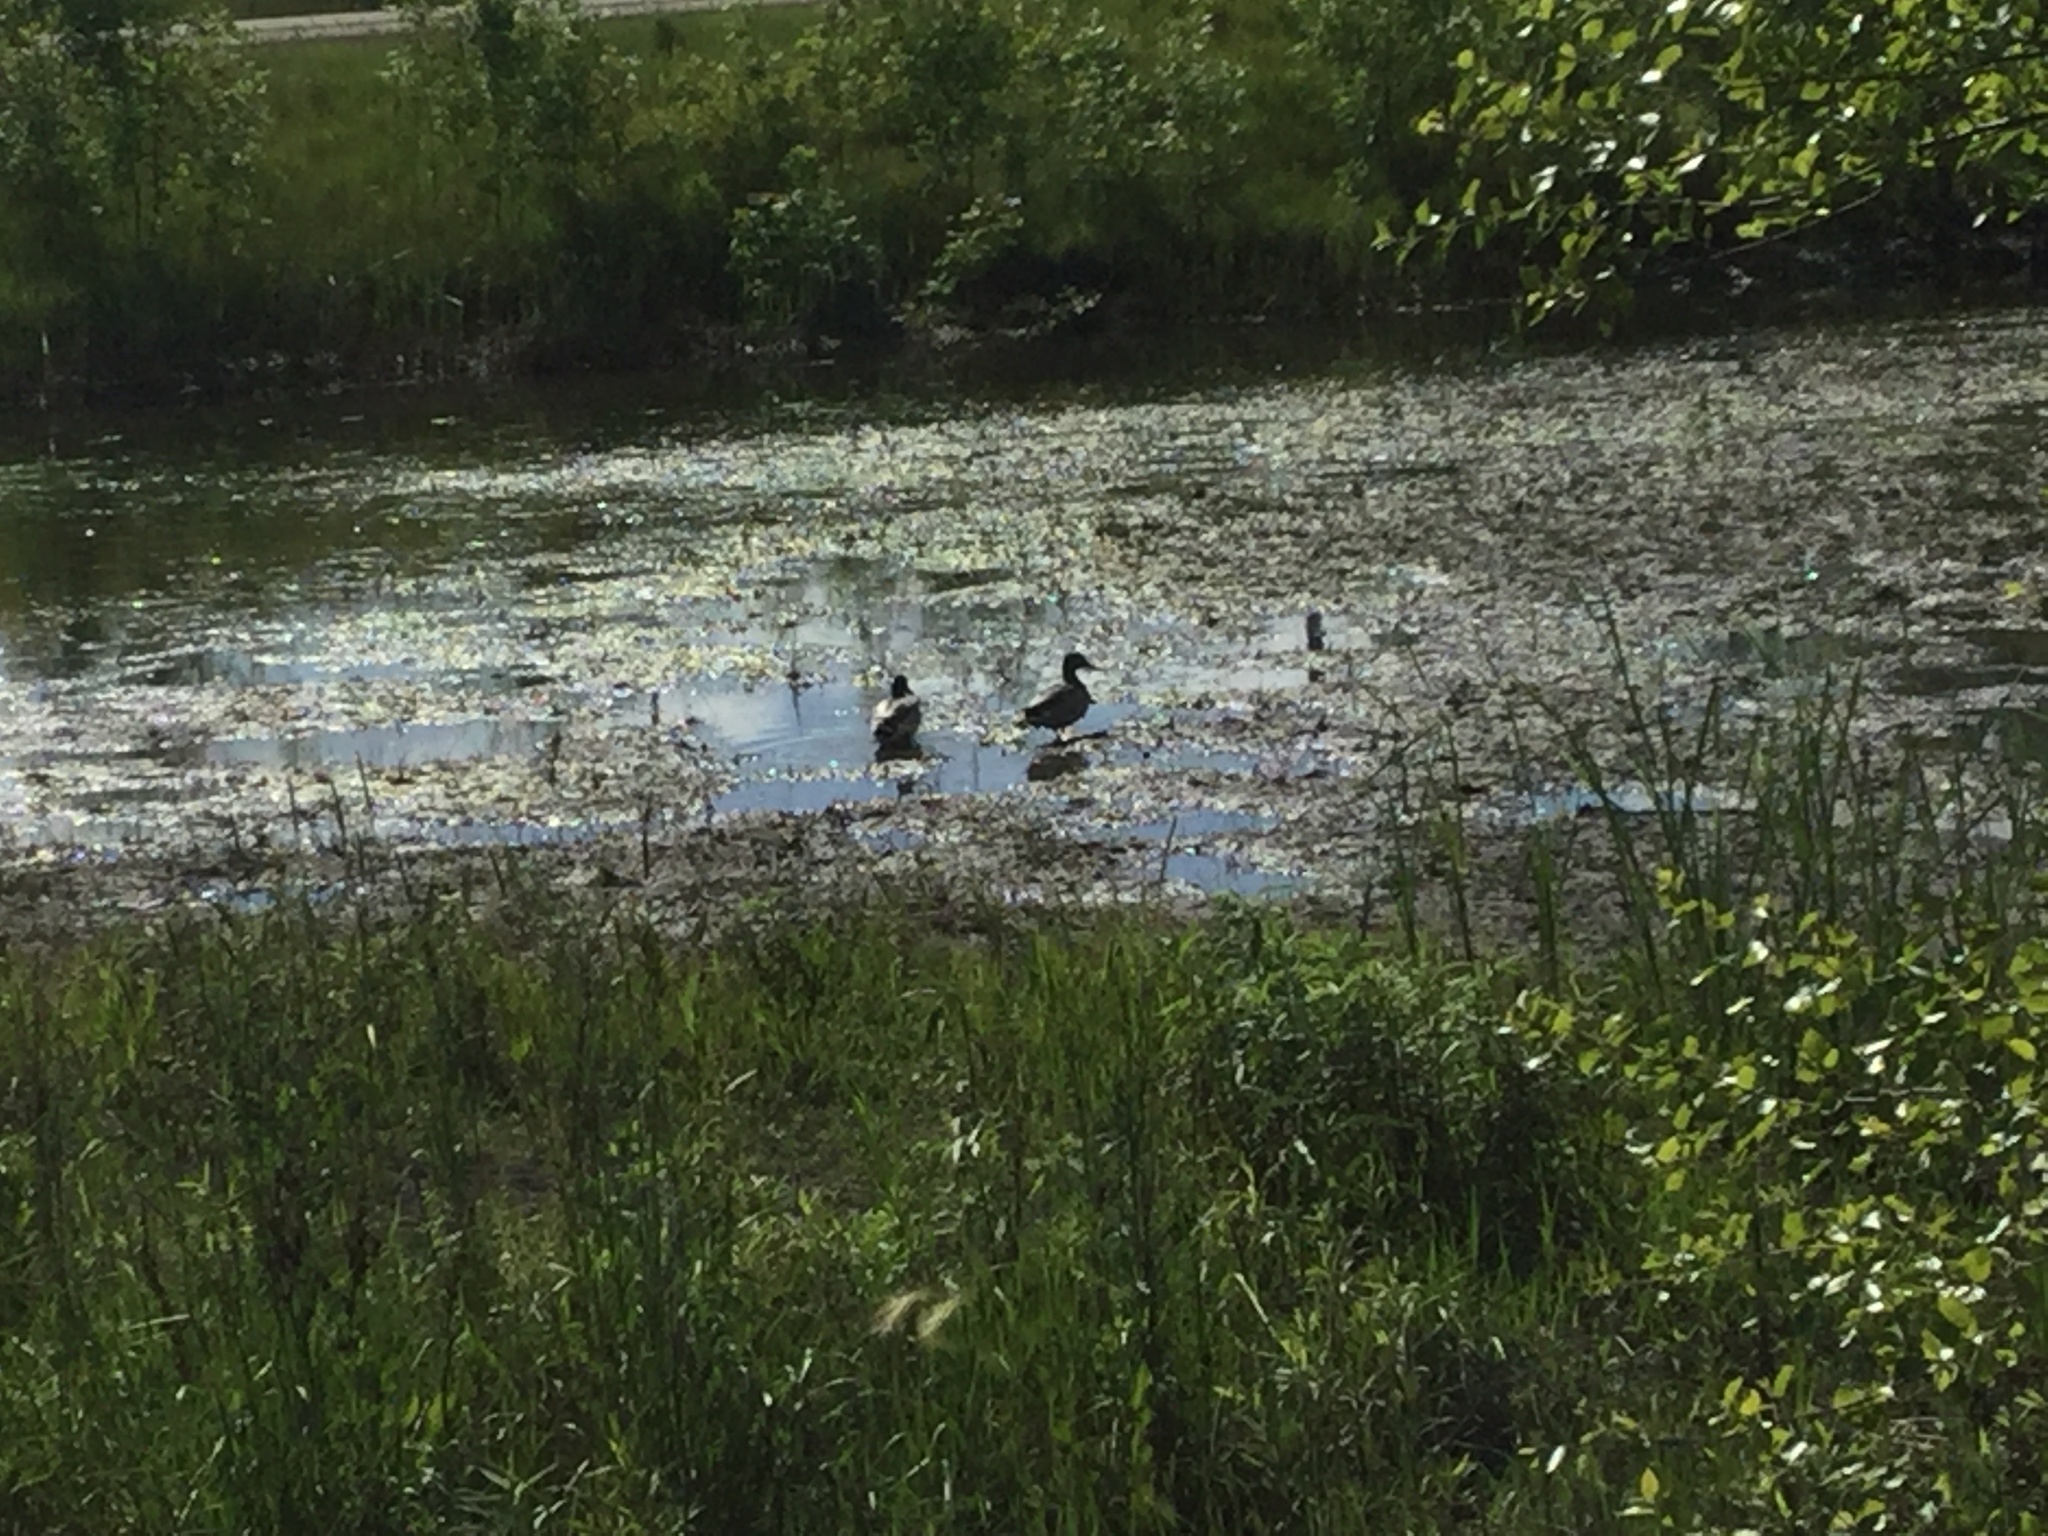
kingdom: Animalia
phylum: Chordata
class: Aves
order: Anseriformes
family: Anatidae
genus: Anas
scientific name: Anas platyrhynchos
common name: Mallard
